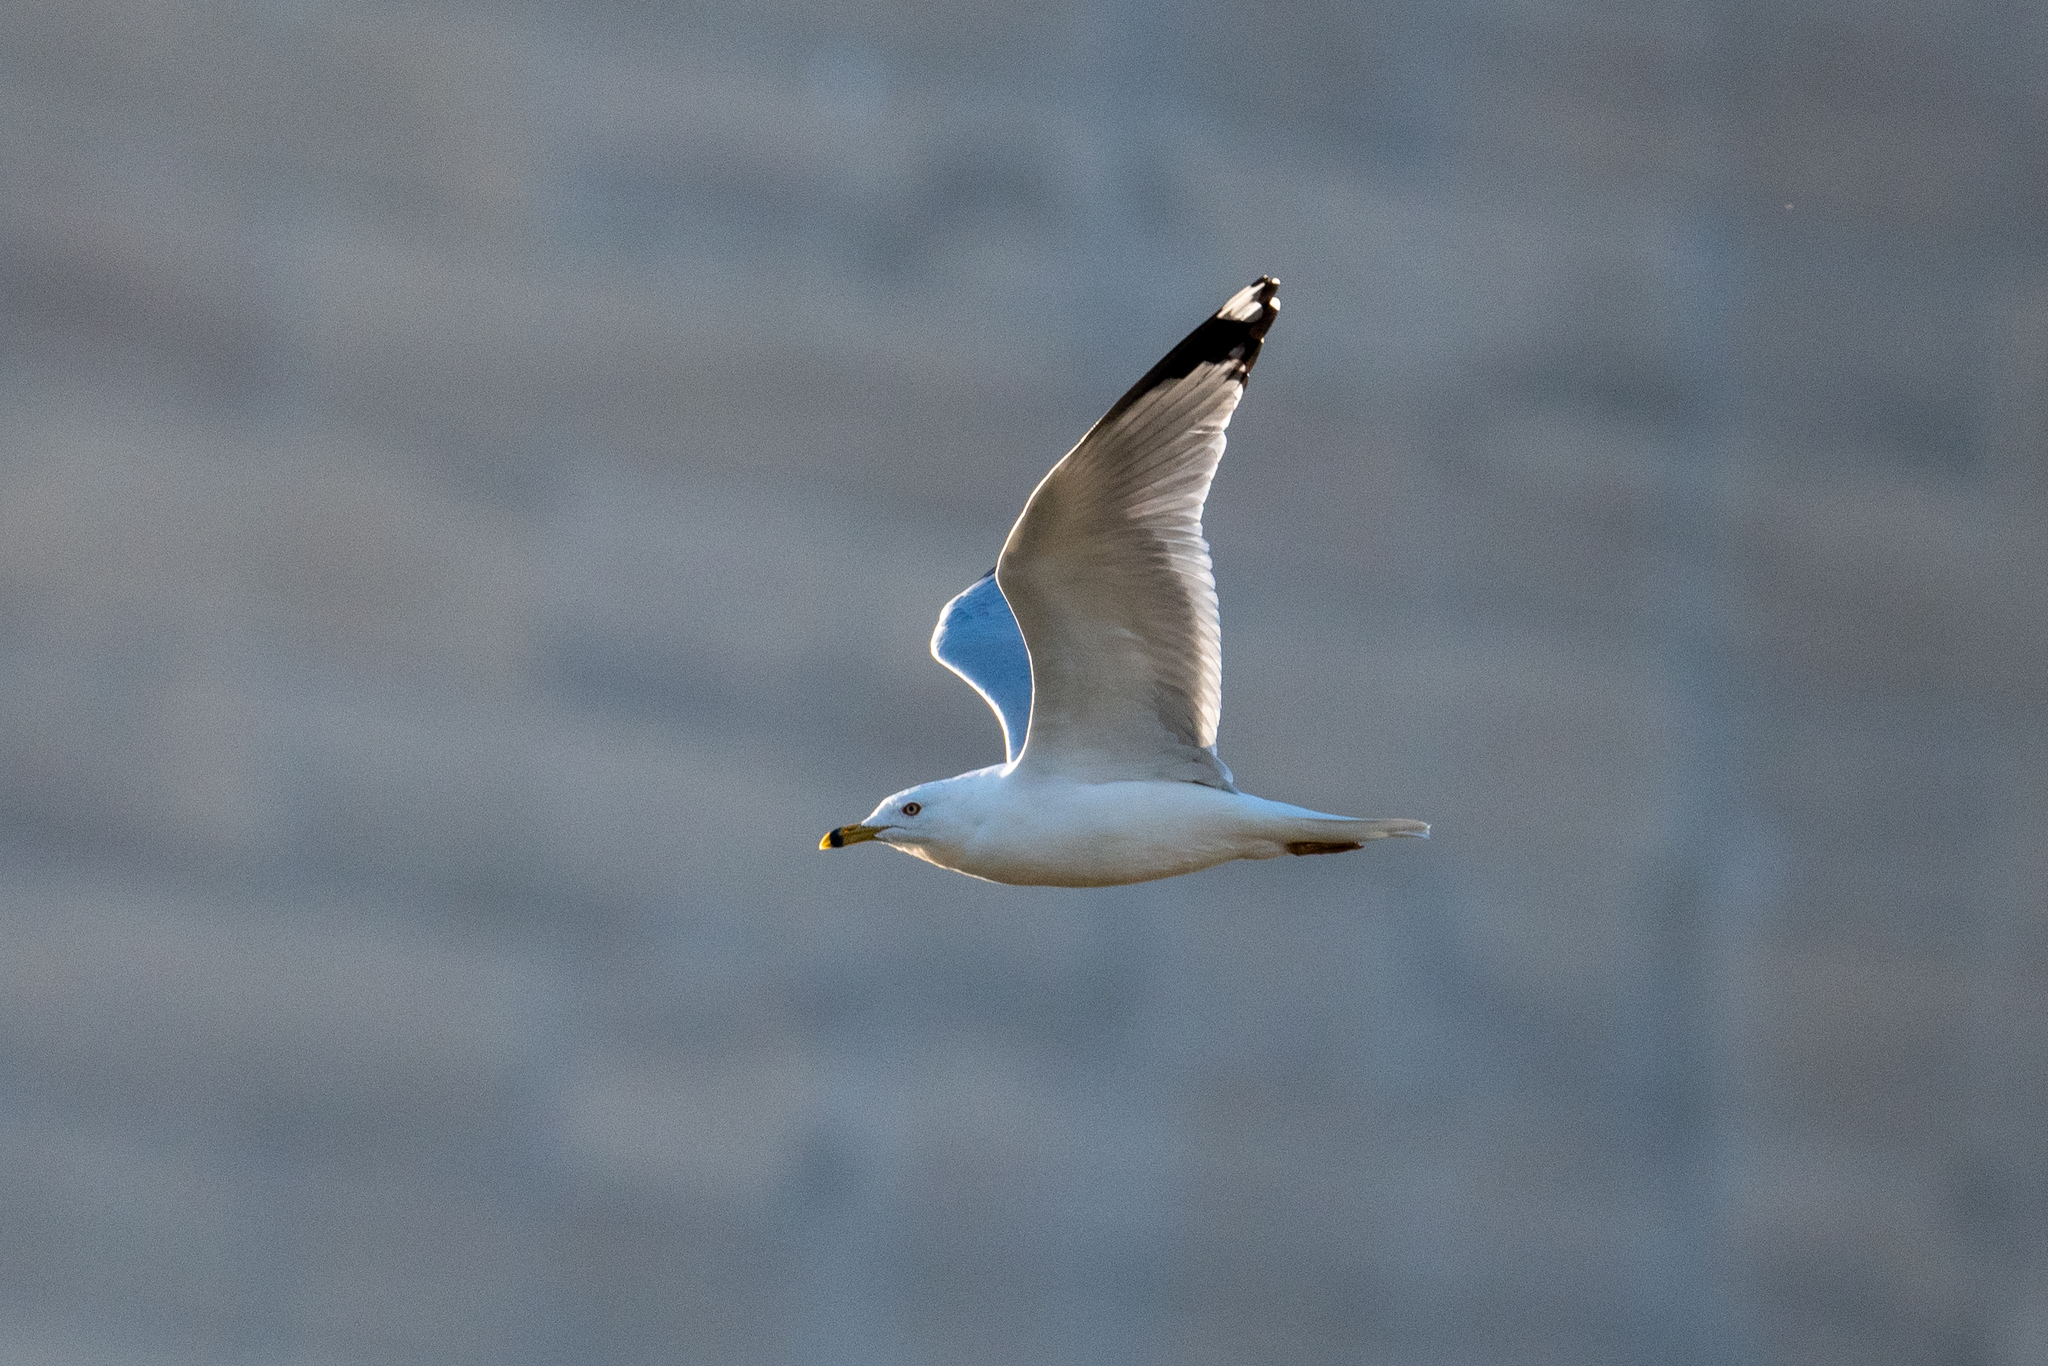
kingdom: Animalia
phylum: Chordata
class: Aves
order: Charadriiformes
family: Laridae
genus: Larus
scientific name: Larus delawarensis
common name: Ring-billed gull
